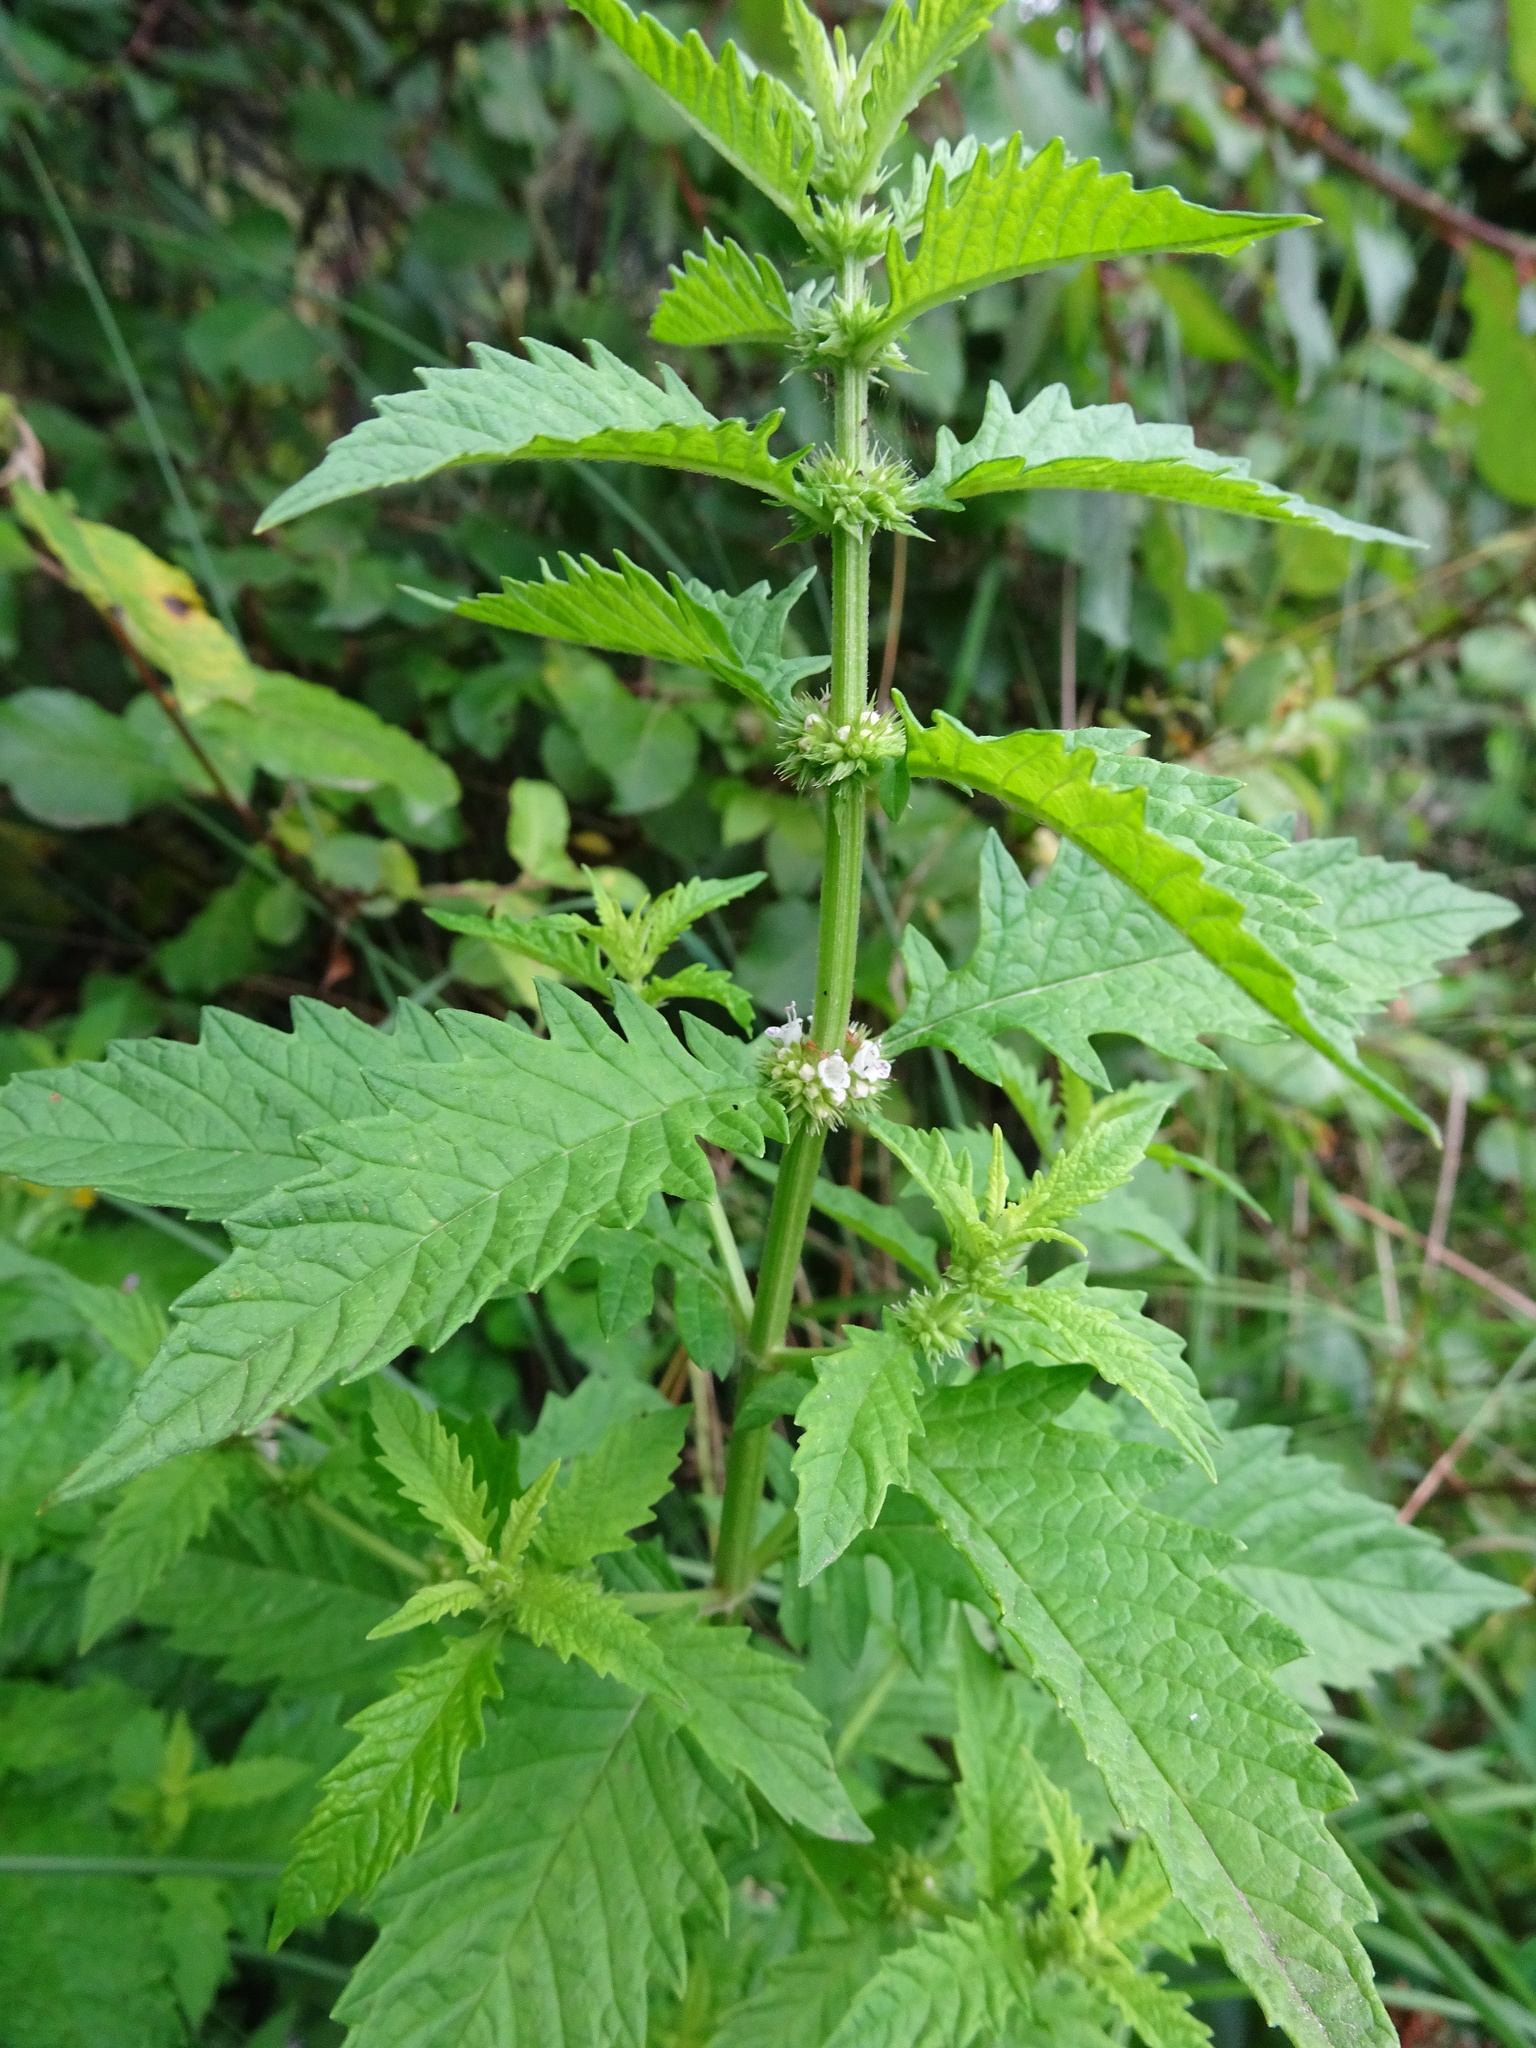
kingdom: Plantae
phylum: Tracheophyta
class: Magnoliopsida
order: Lamiales
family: Lamiaceae
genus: Lycopus
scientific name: Lycopus europaeus
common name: European bugleweed
